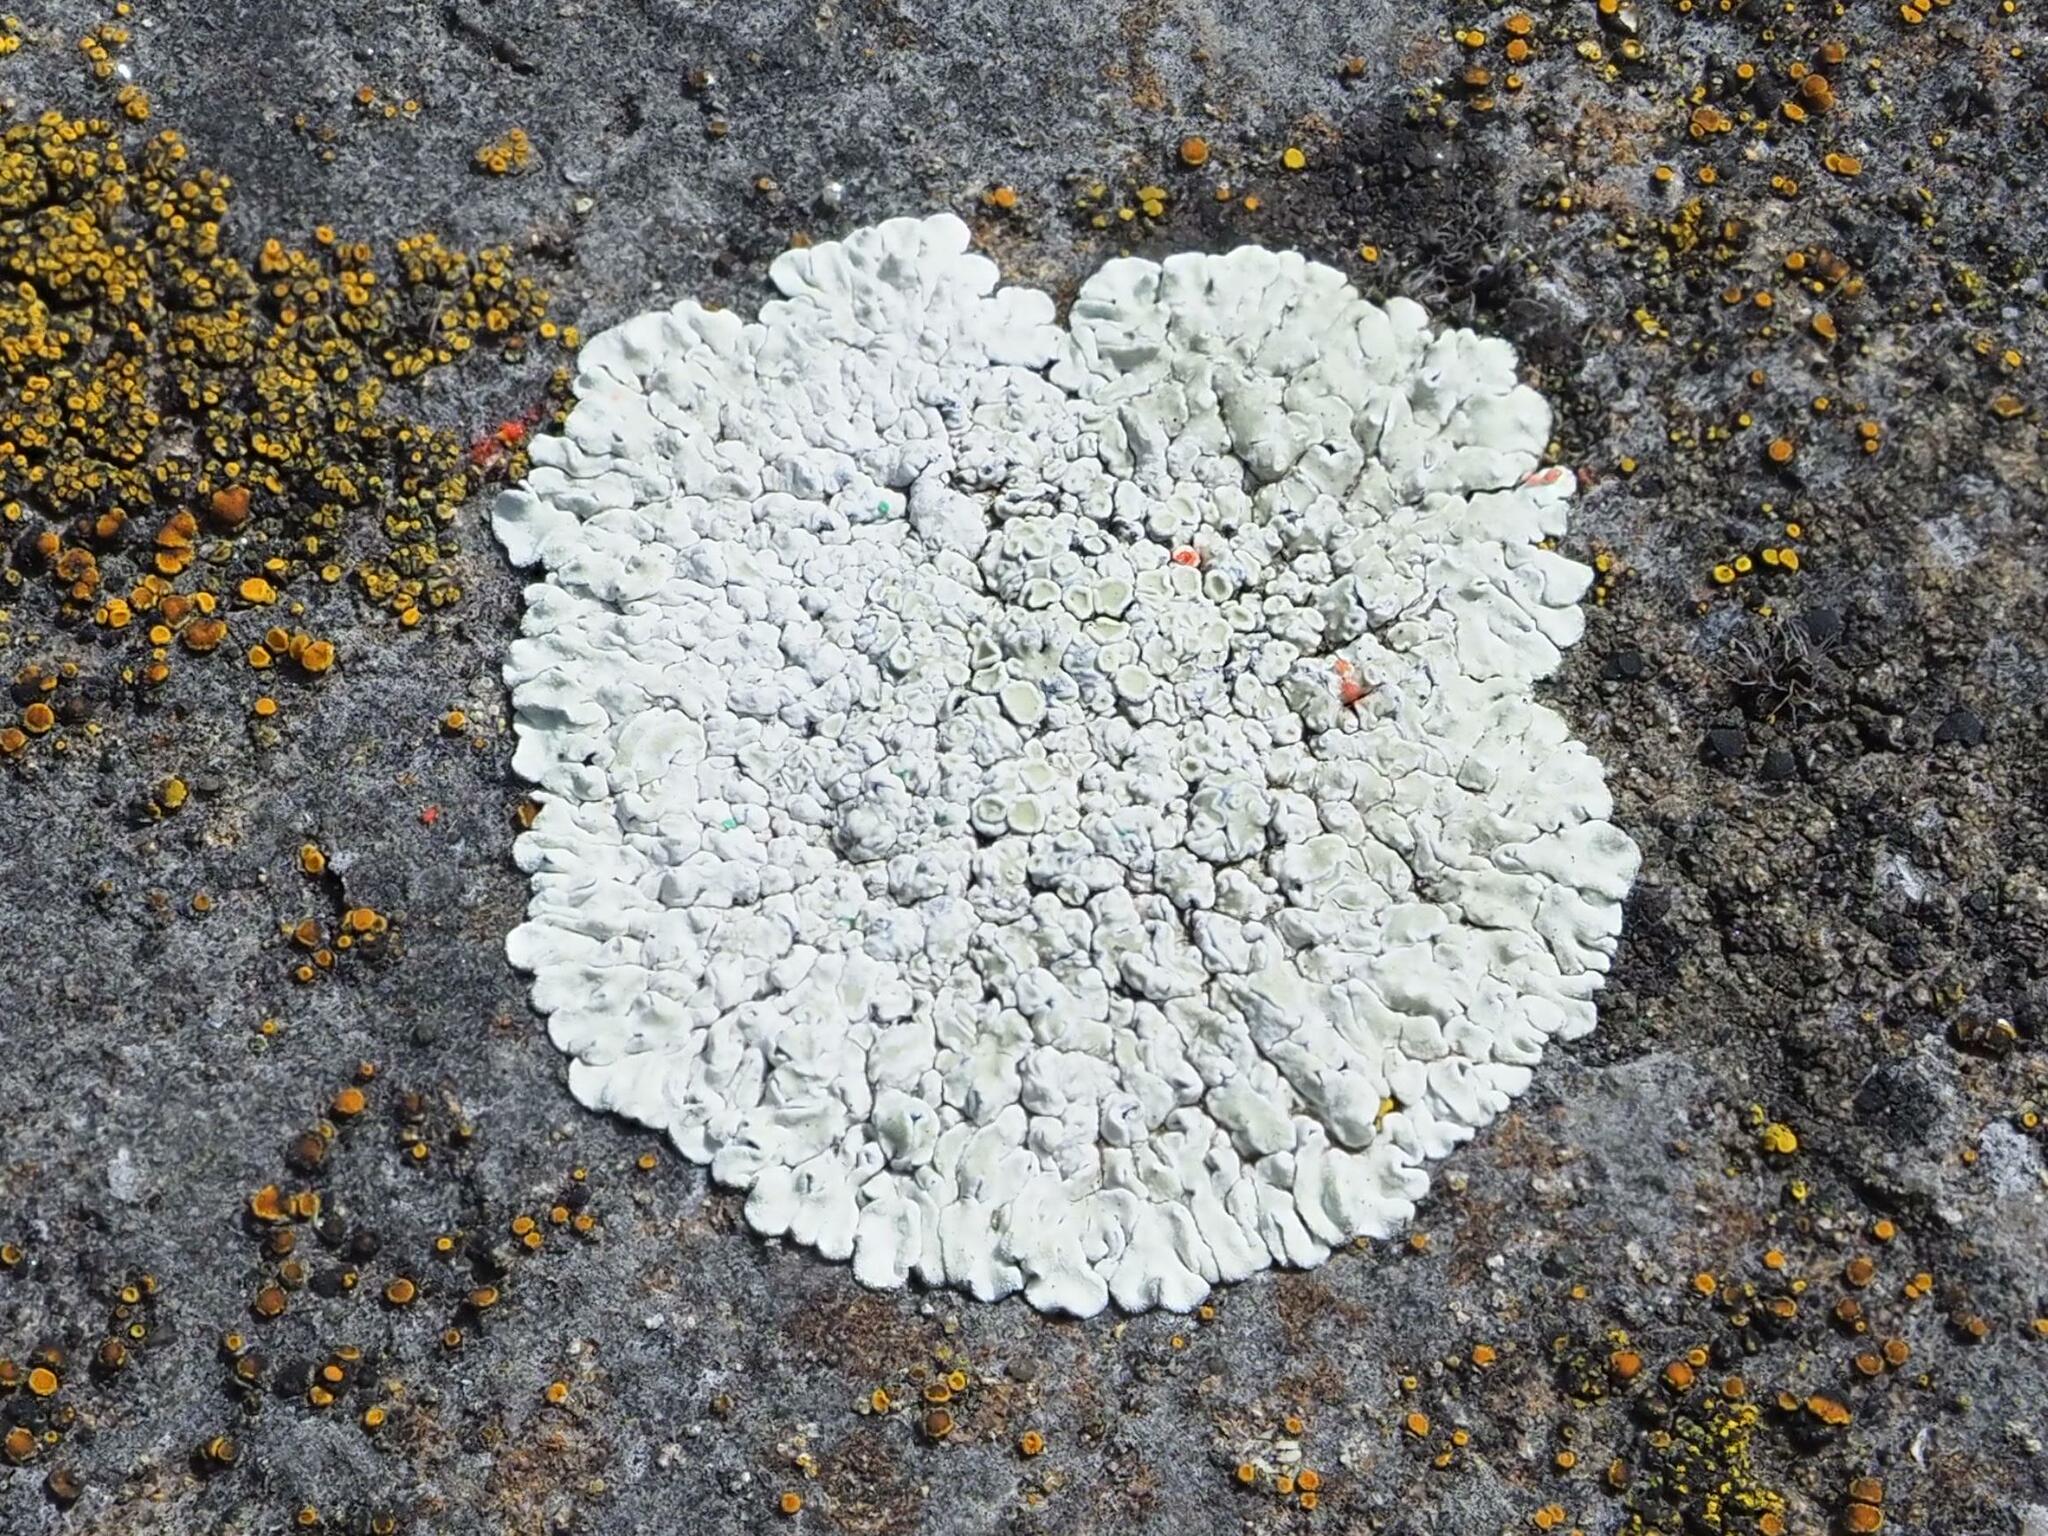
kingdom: Fungi
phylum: Ascomycota
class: Lecanoromycetes
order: Lecanorales
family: Lecanoraceae
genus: Protoparmeliopsis
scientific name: Protoparmeliopsis muralis
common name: Stonewall rim lichen
